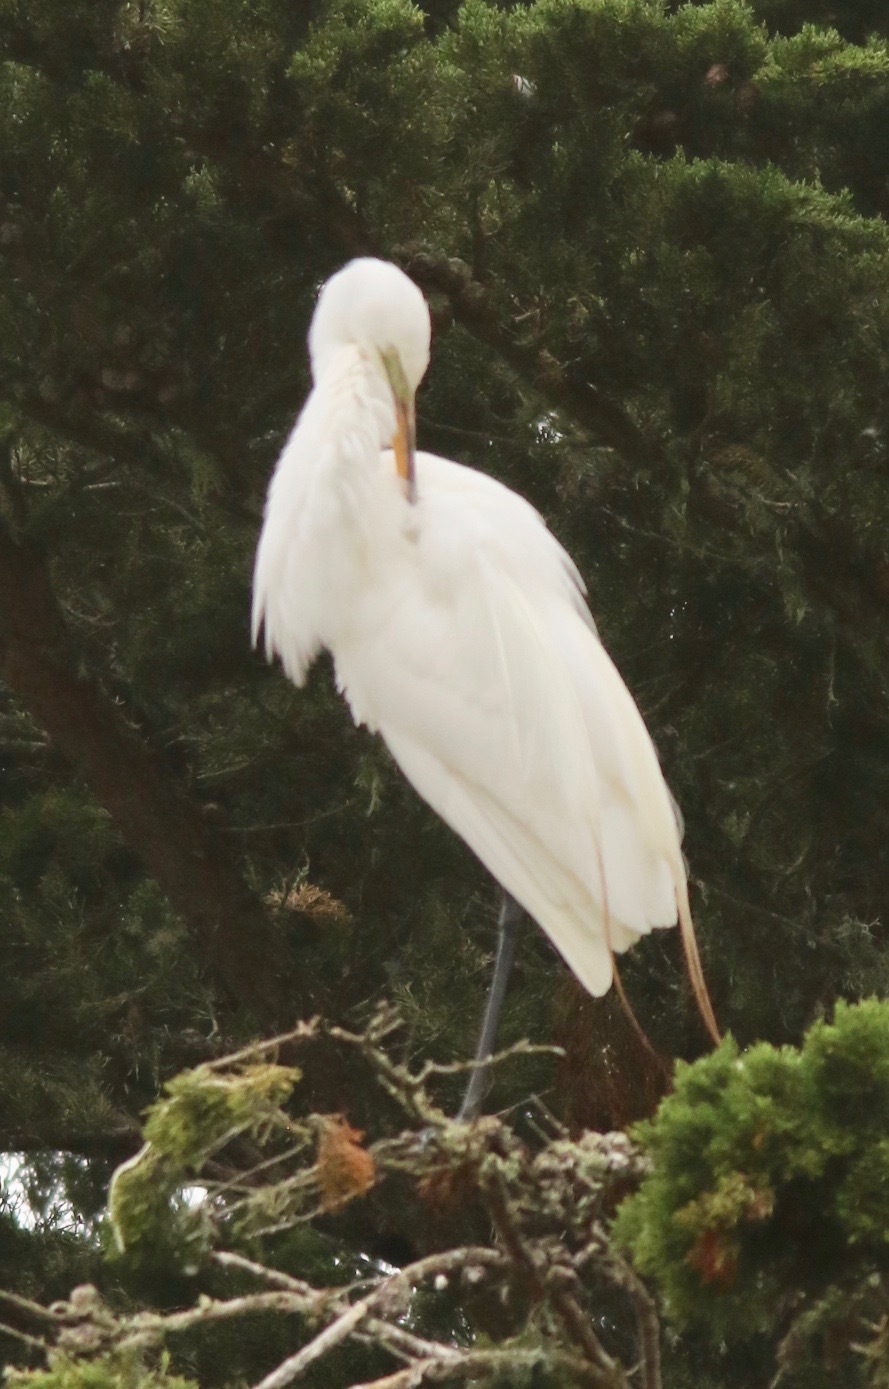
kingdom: Animalia
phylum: Chordata
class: Aves
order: Pelecaniformes
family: Ardeidae
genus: Ardea
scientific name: Ardea alba
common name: Great egret
